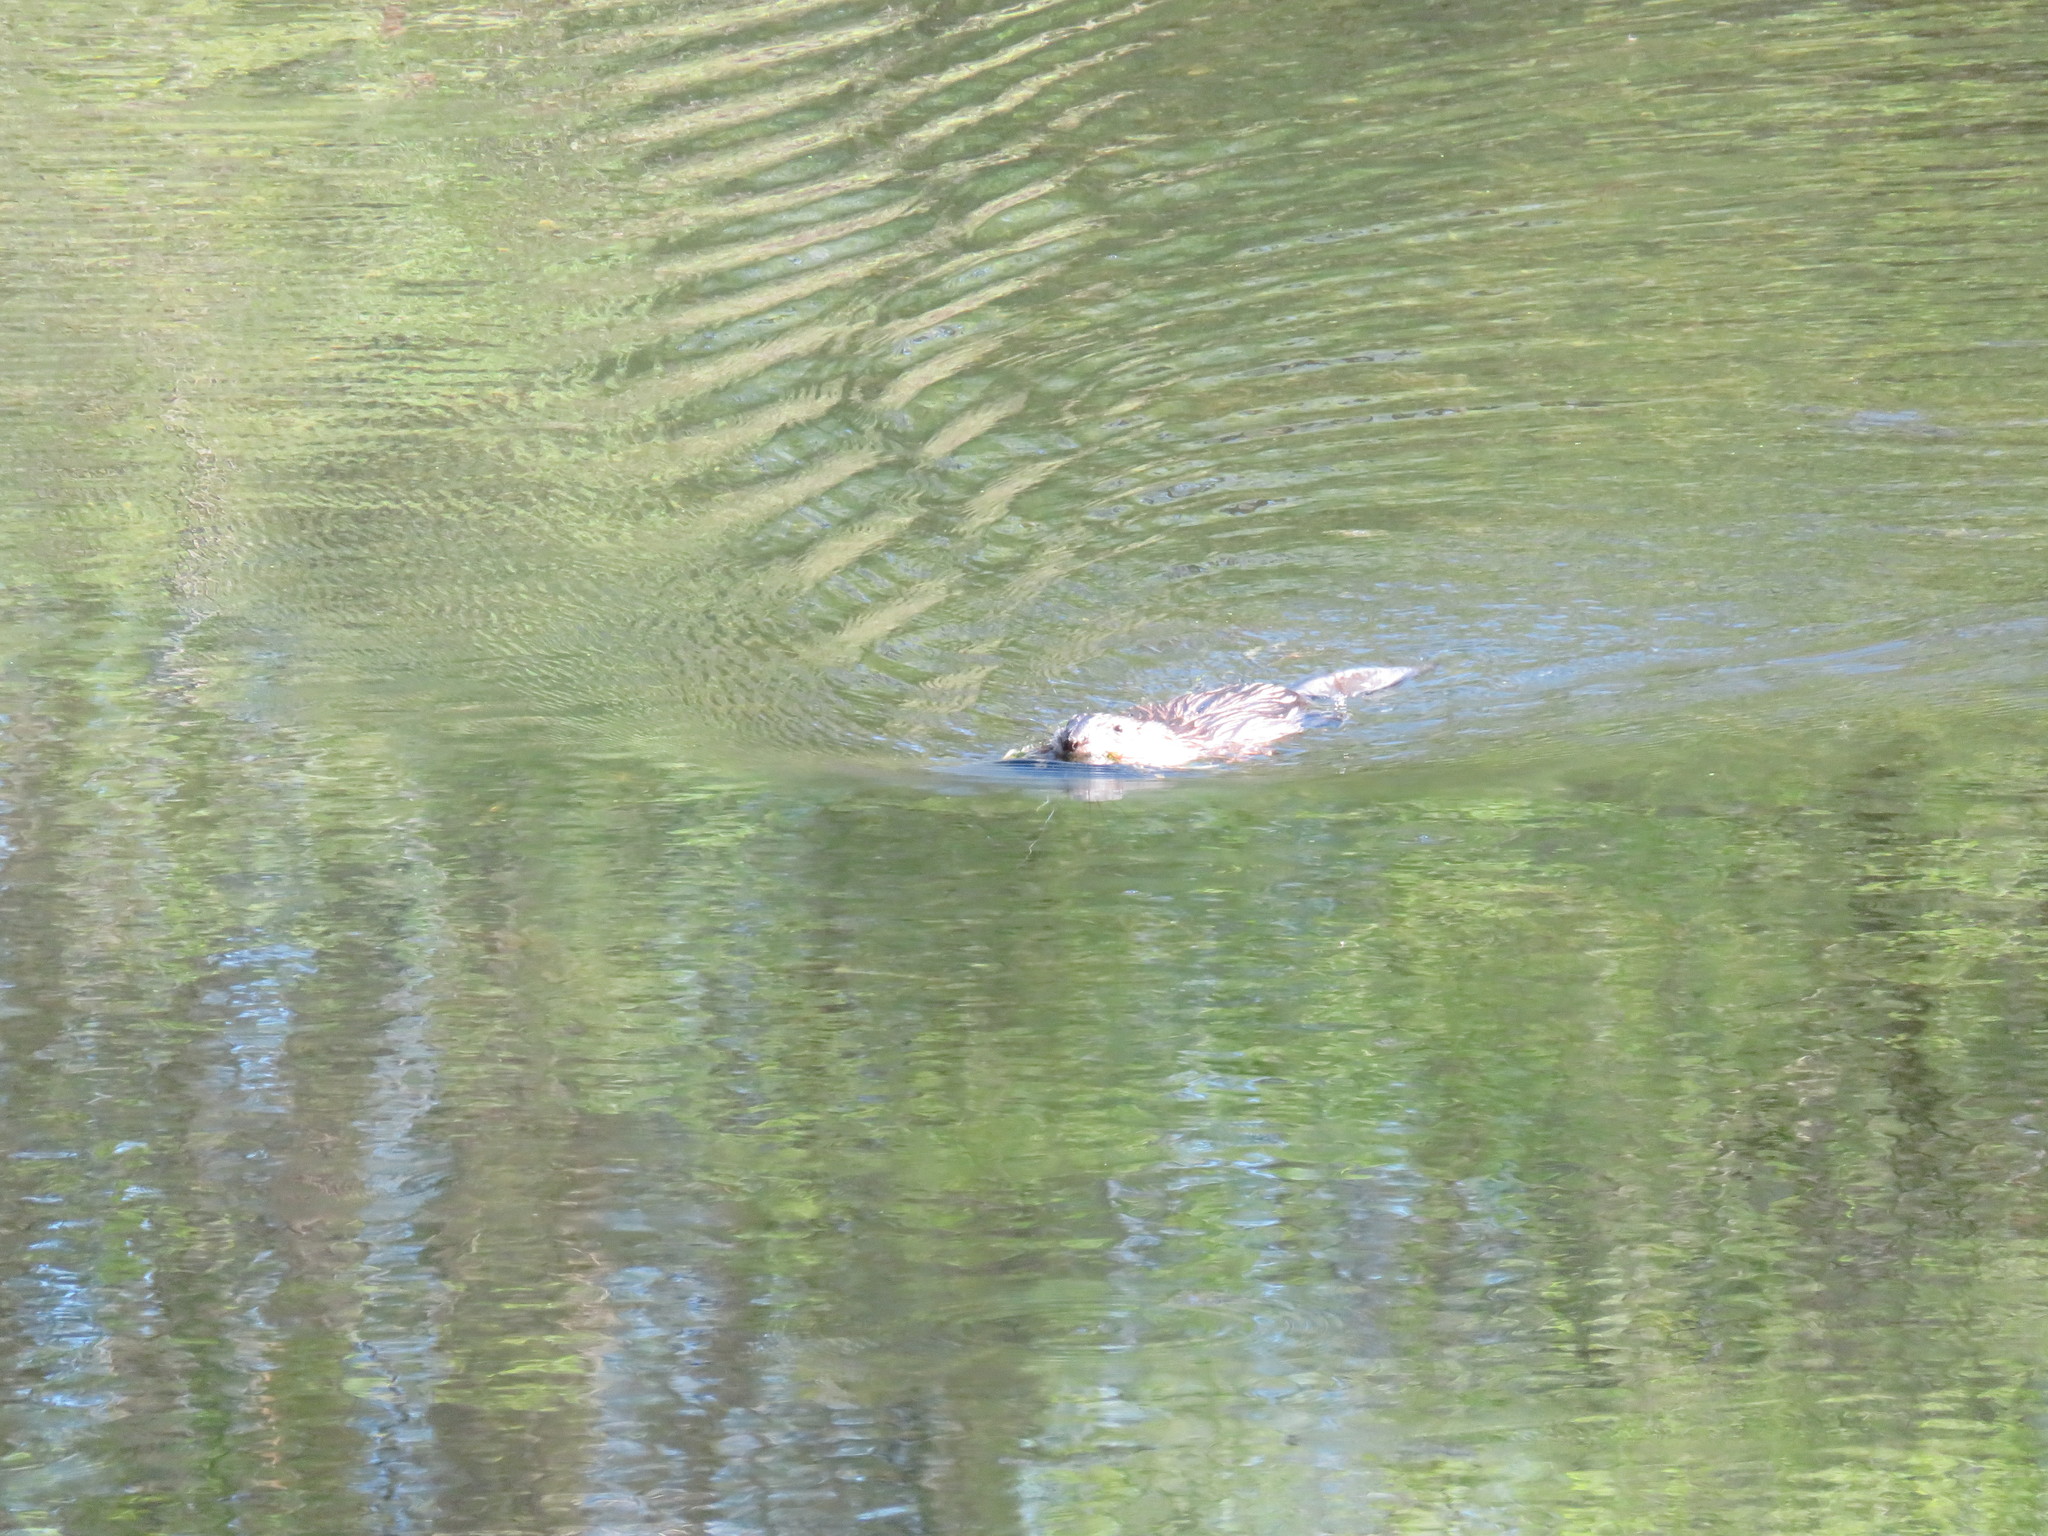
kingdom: Animalia
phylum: Chordata
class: Mammalia
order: Rodentia
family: Cricetidae
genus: Ondatra
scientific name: Ondatra zibethicus
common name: Muskrat
